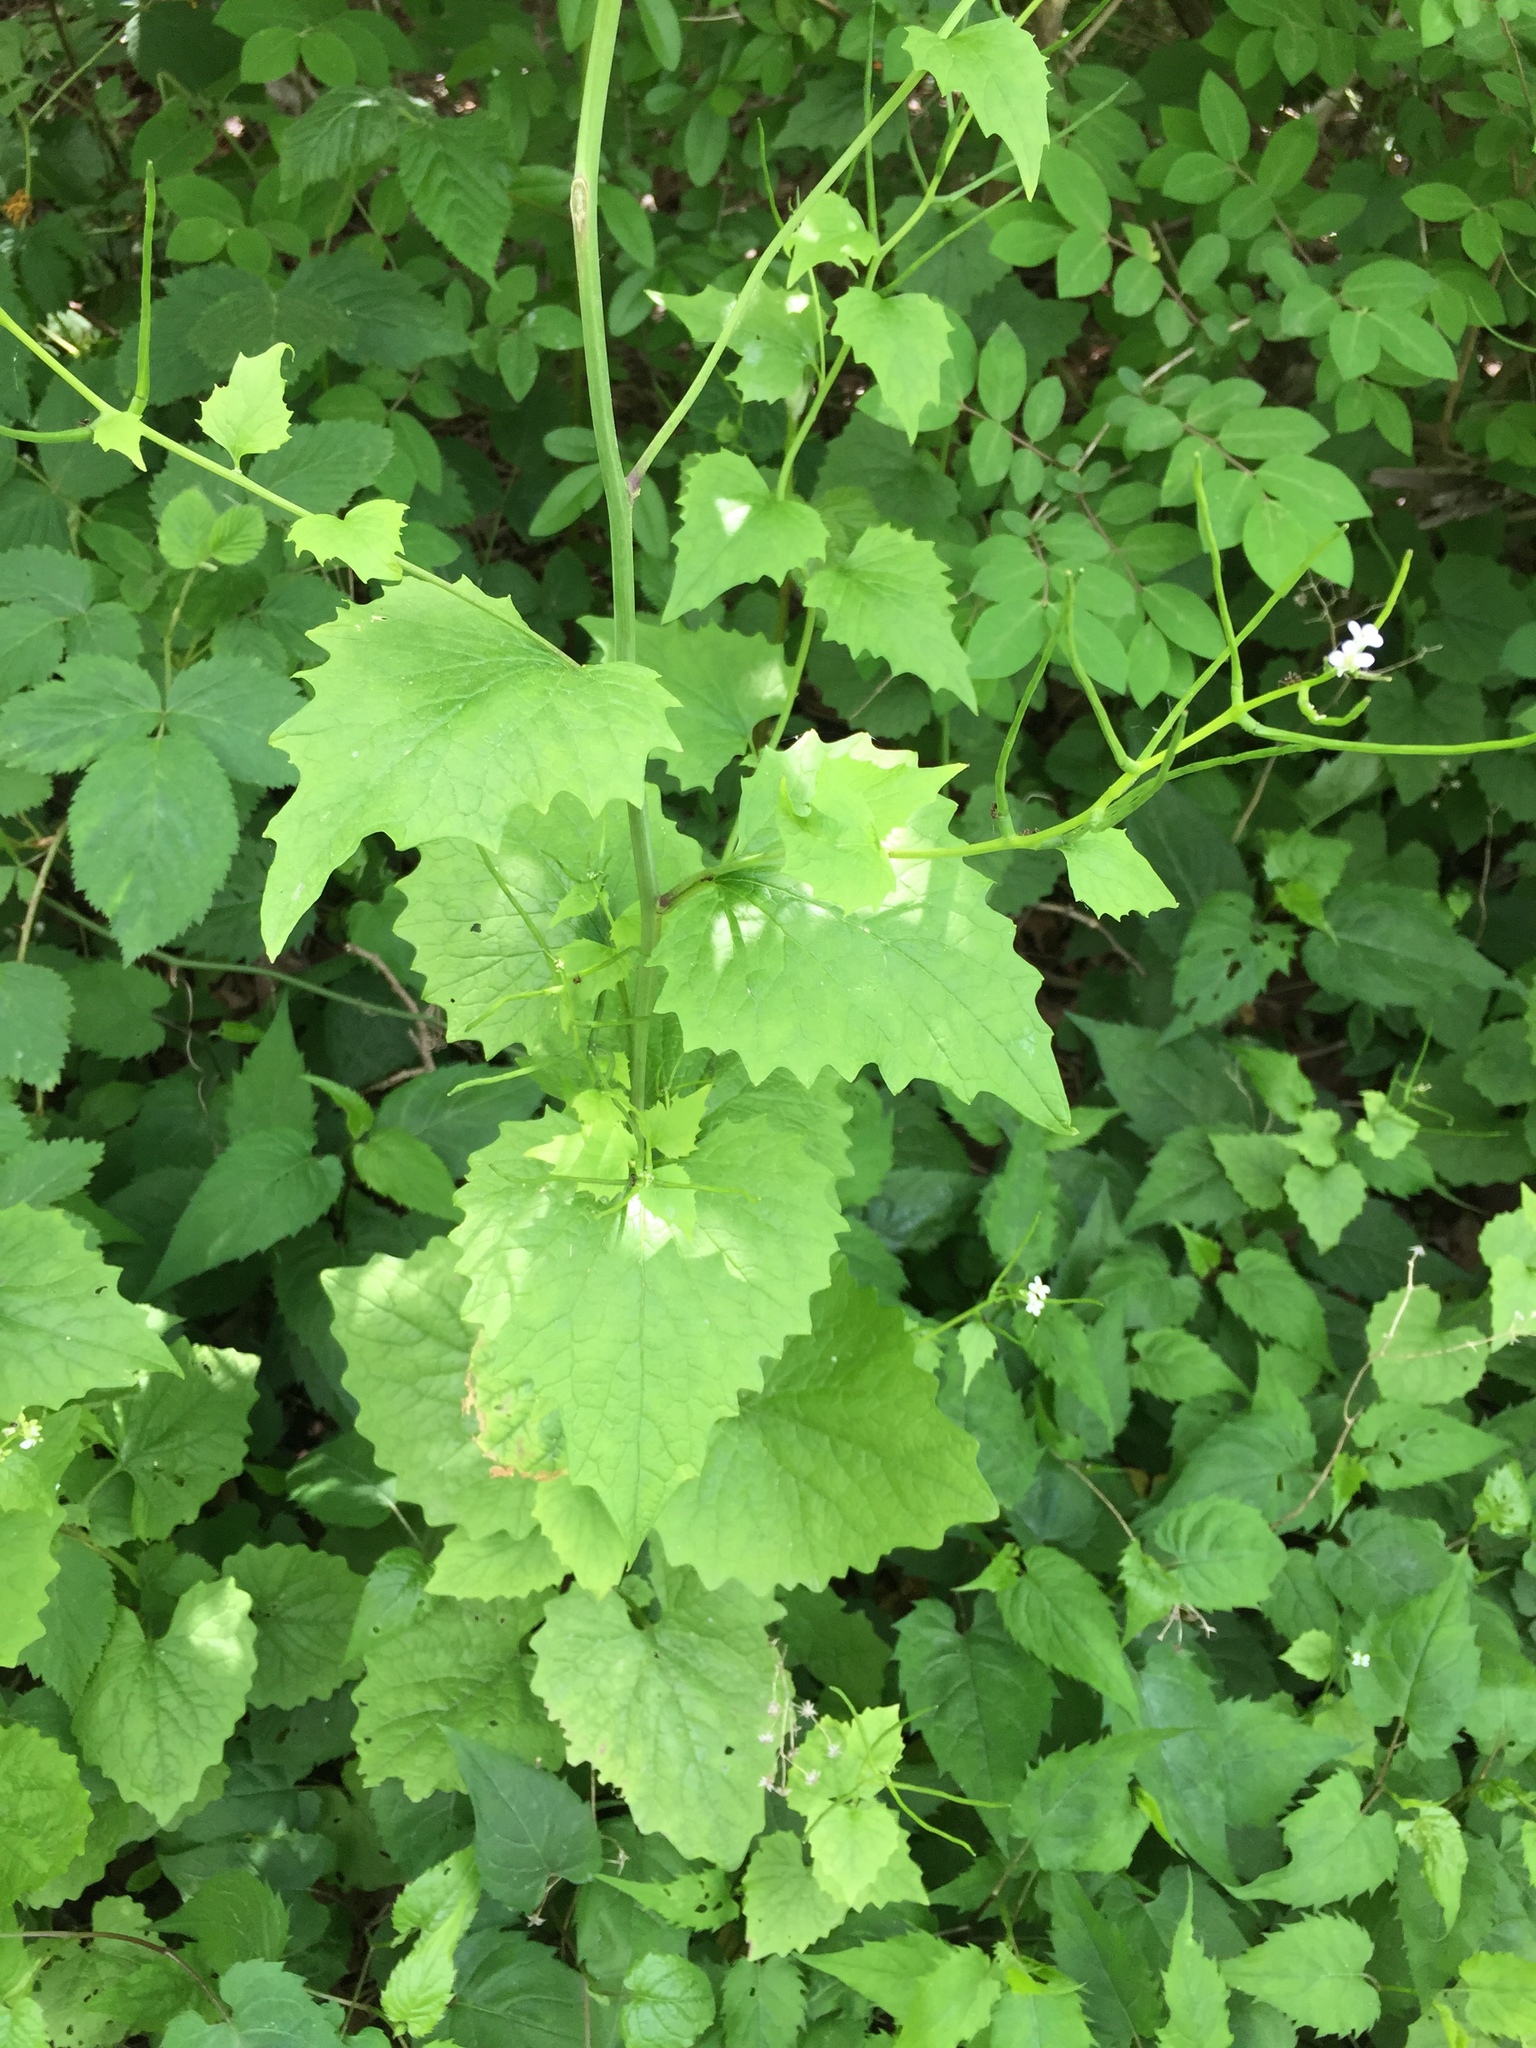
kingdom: Plantae
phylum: Tracheophyta
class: Magnoliopsida
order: Brassicales
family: Brassicaceae
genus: Alliaria
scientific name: Alliaria petiolata
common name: Garlic mustard
